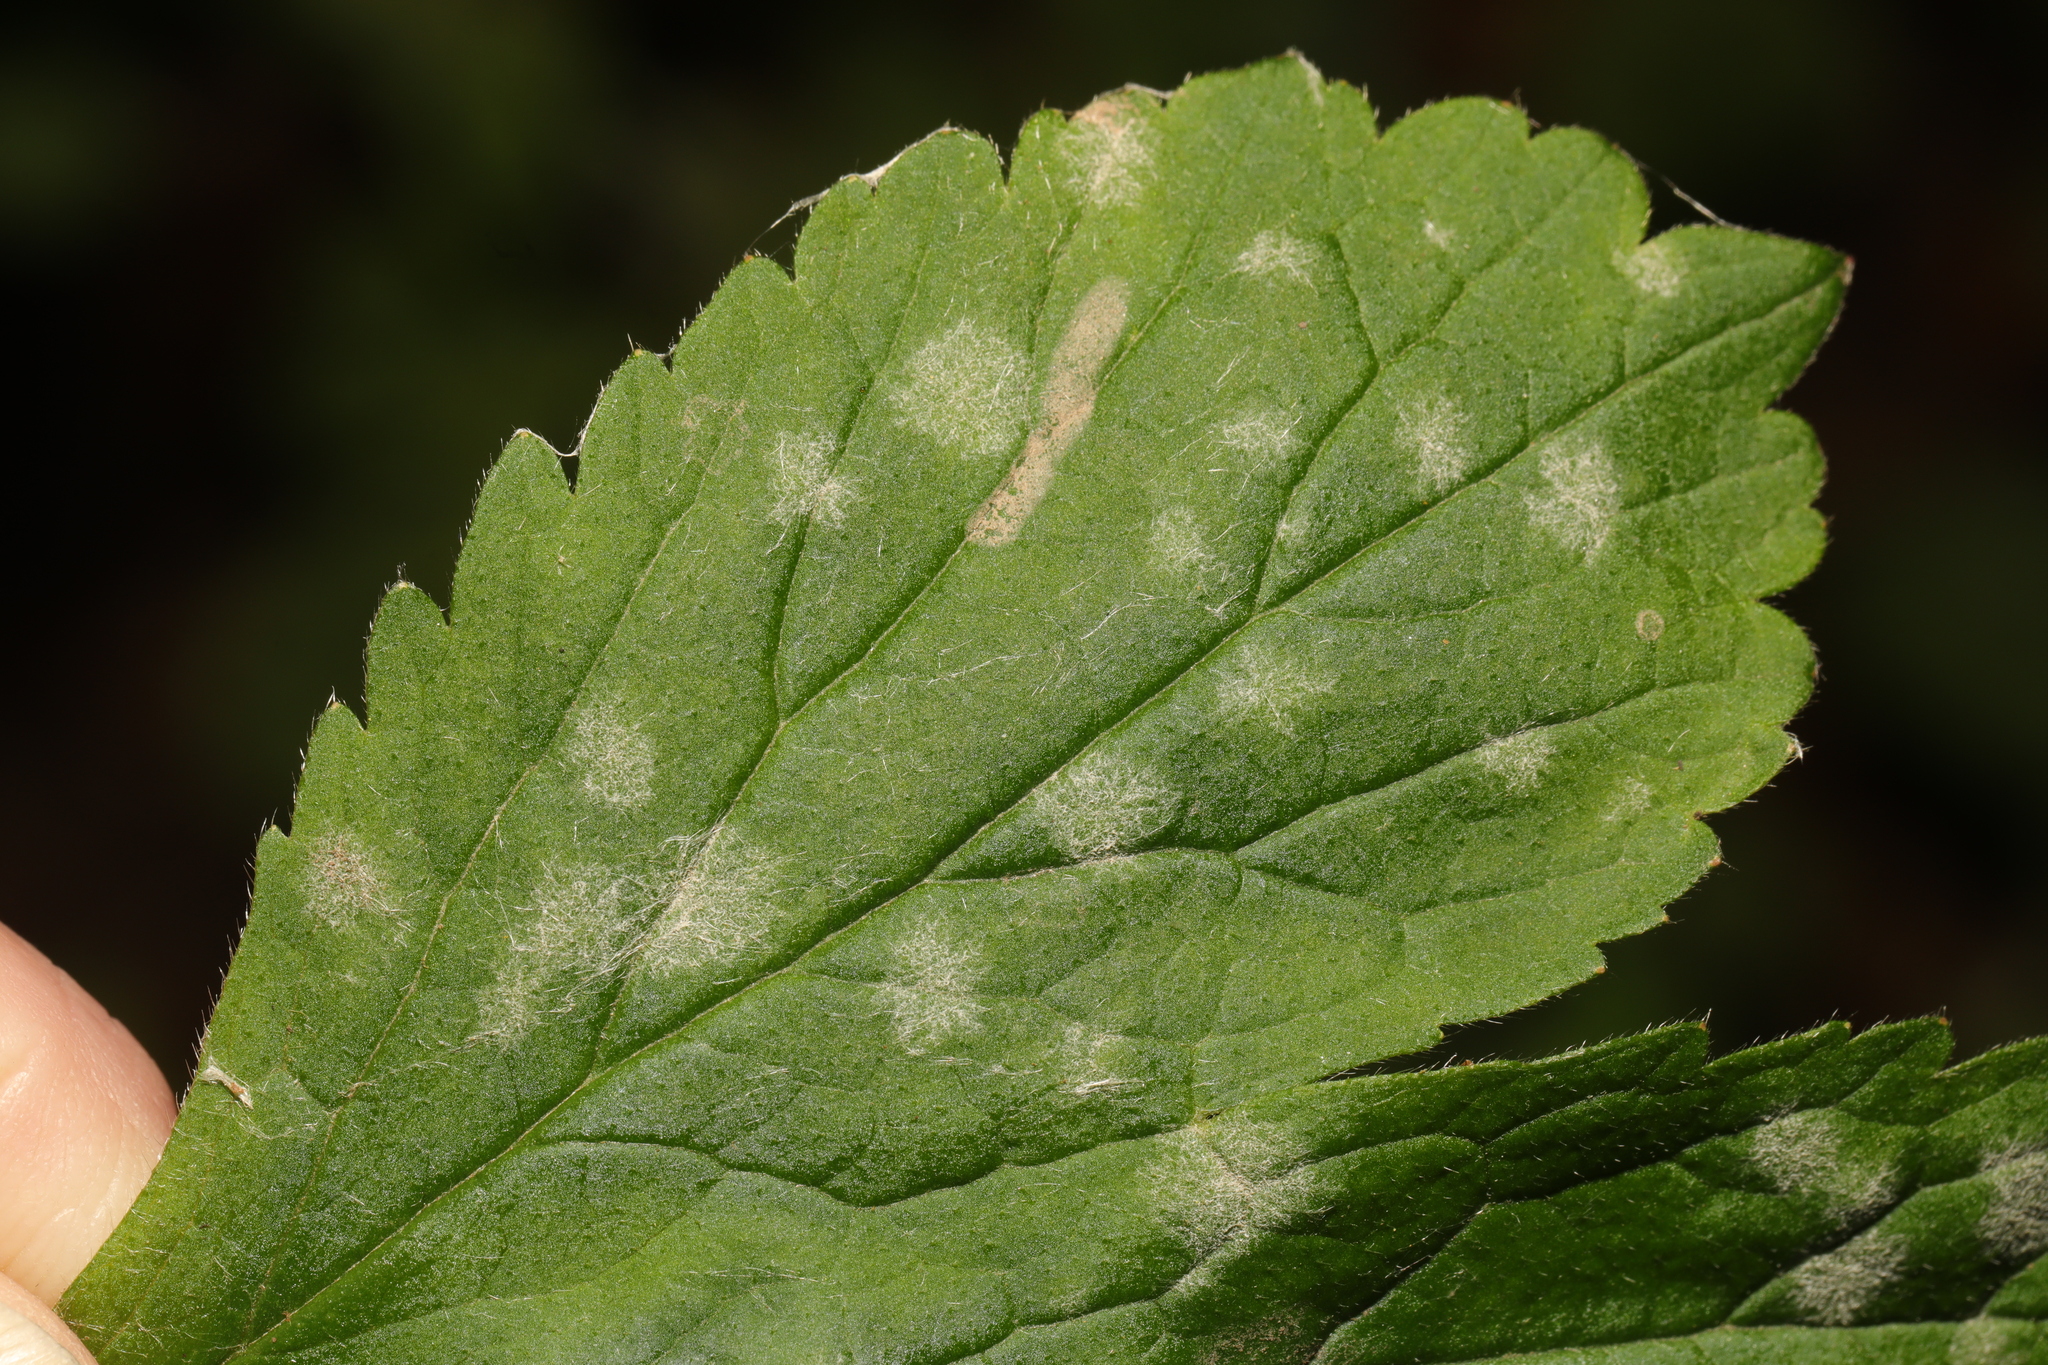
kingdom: Fungi
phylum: Ascomycota
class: Leotiomycetes
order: Helotiales
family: Erysiphaceae
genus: Podosphaera
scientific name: Podosphaera aphanis
